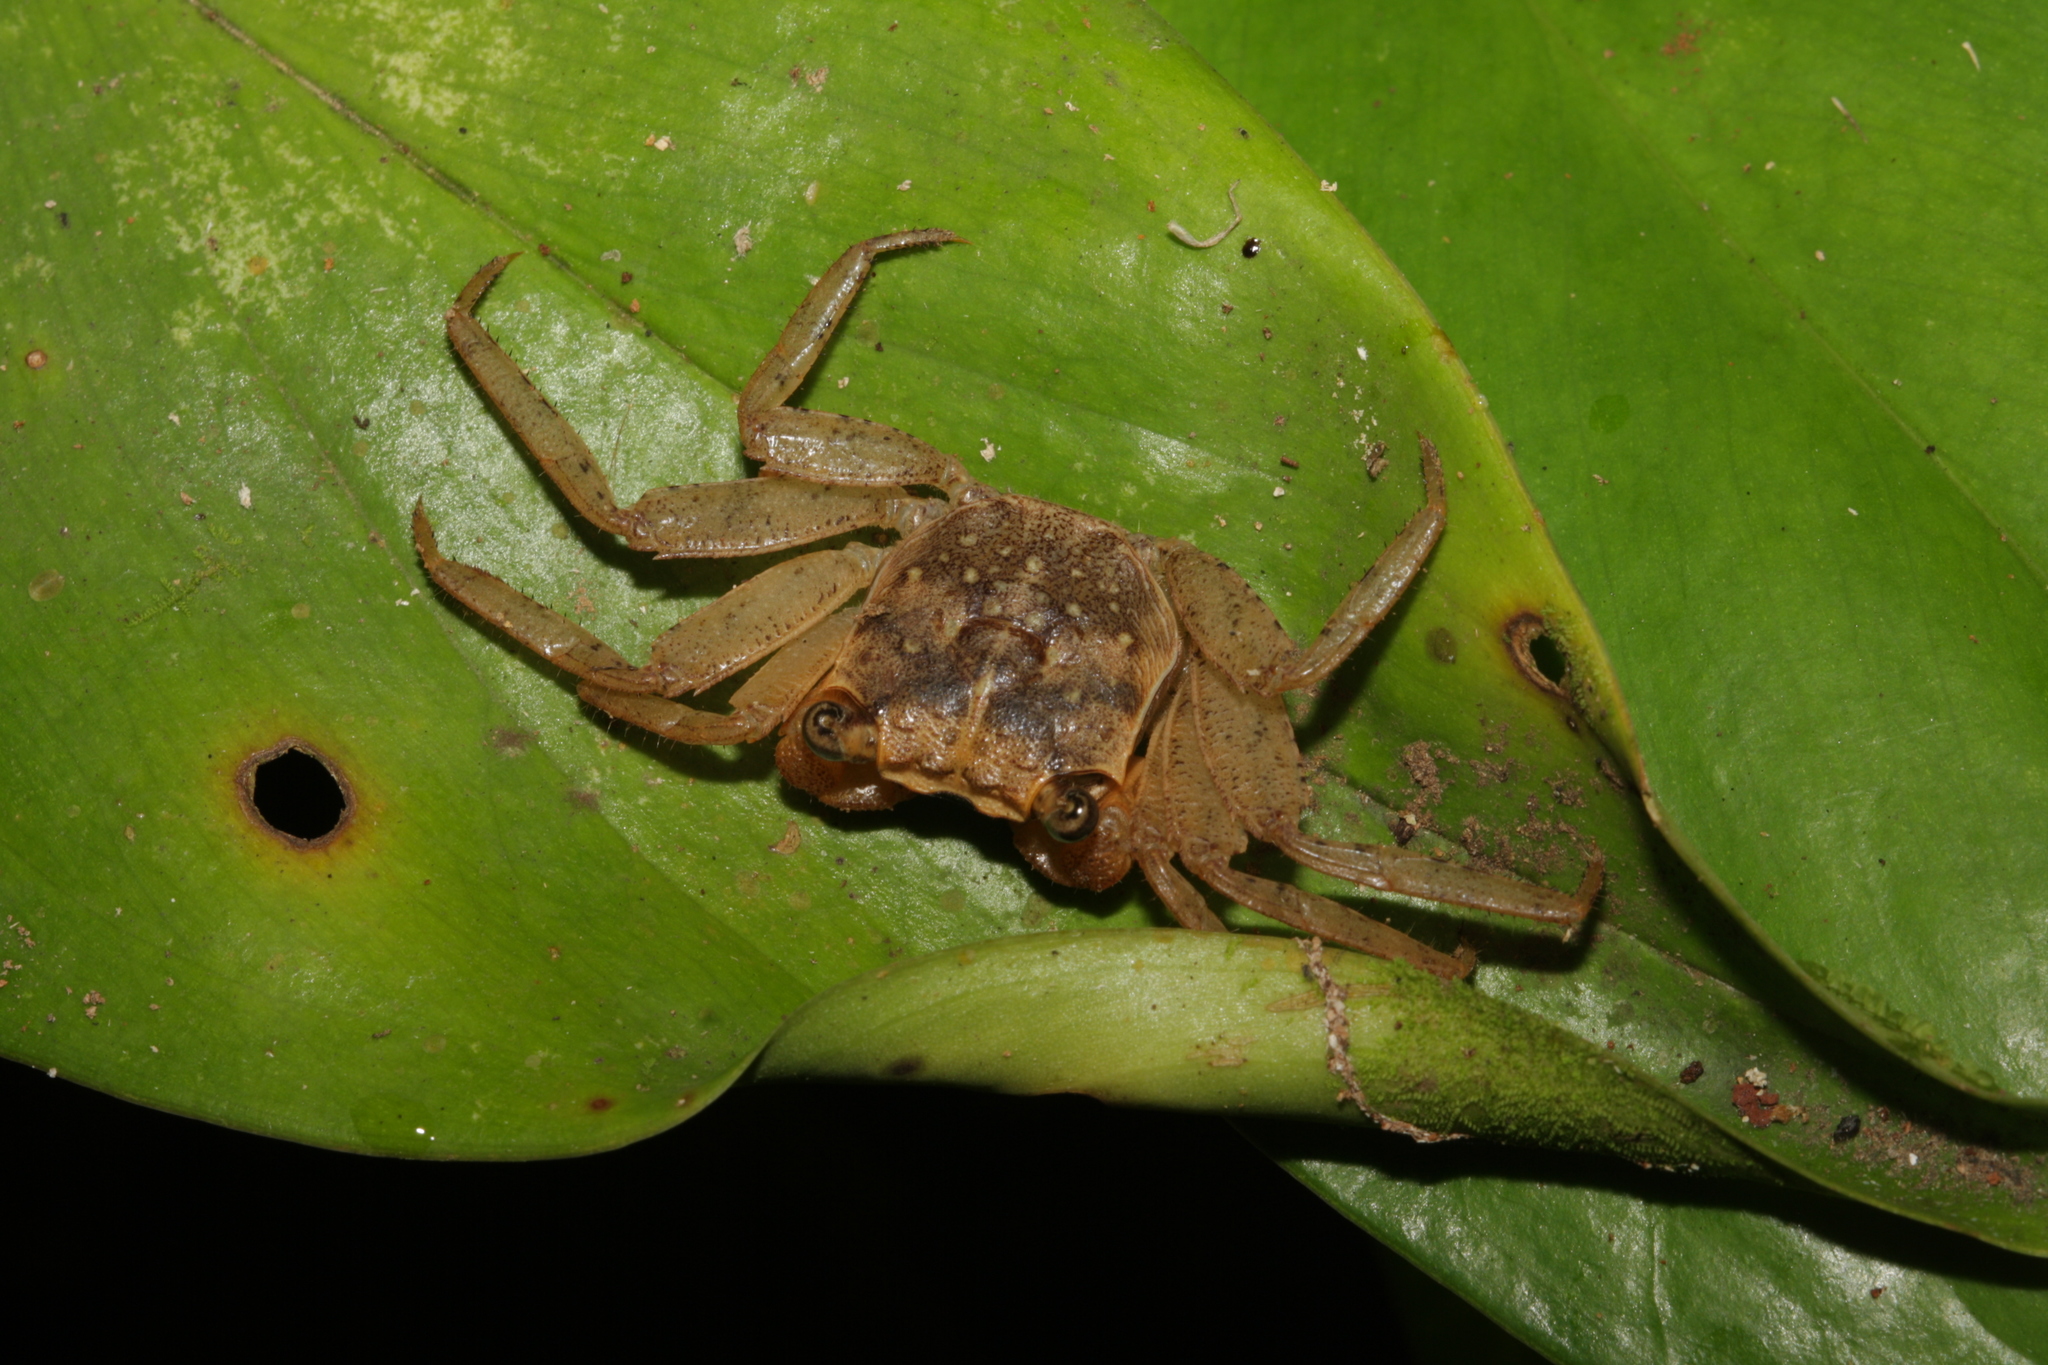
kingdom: Animalia
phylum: Arthropoda
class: Malacostraca
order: Decapoda
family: Sesarmidae
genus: Armases
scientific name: Armases angustum
